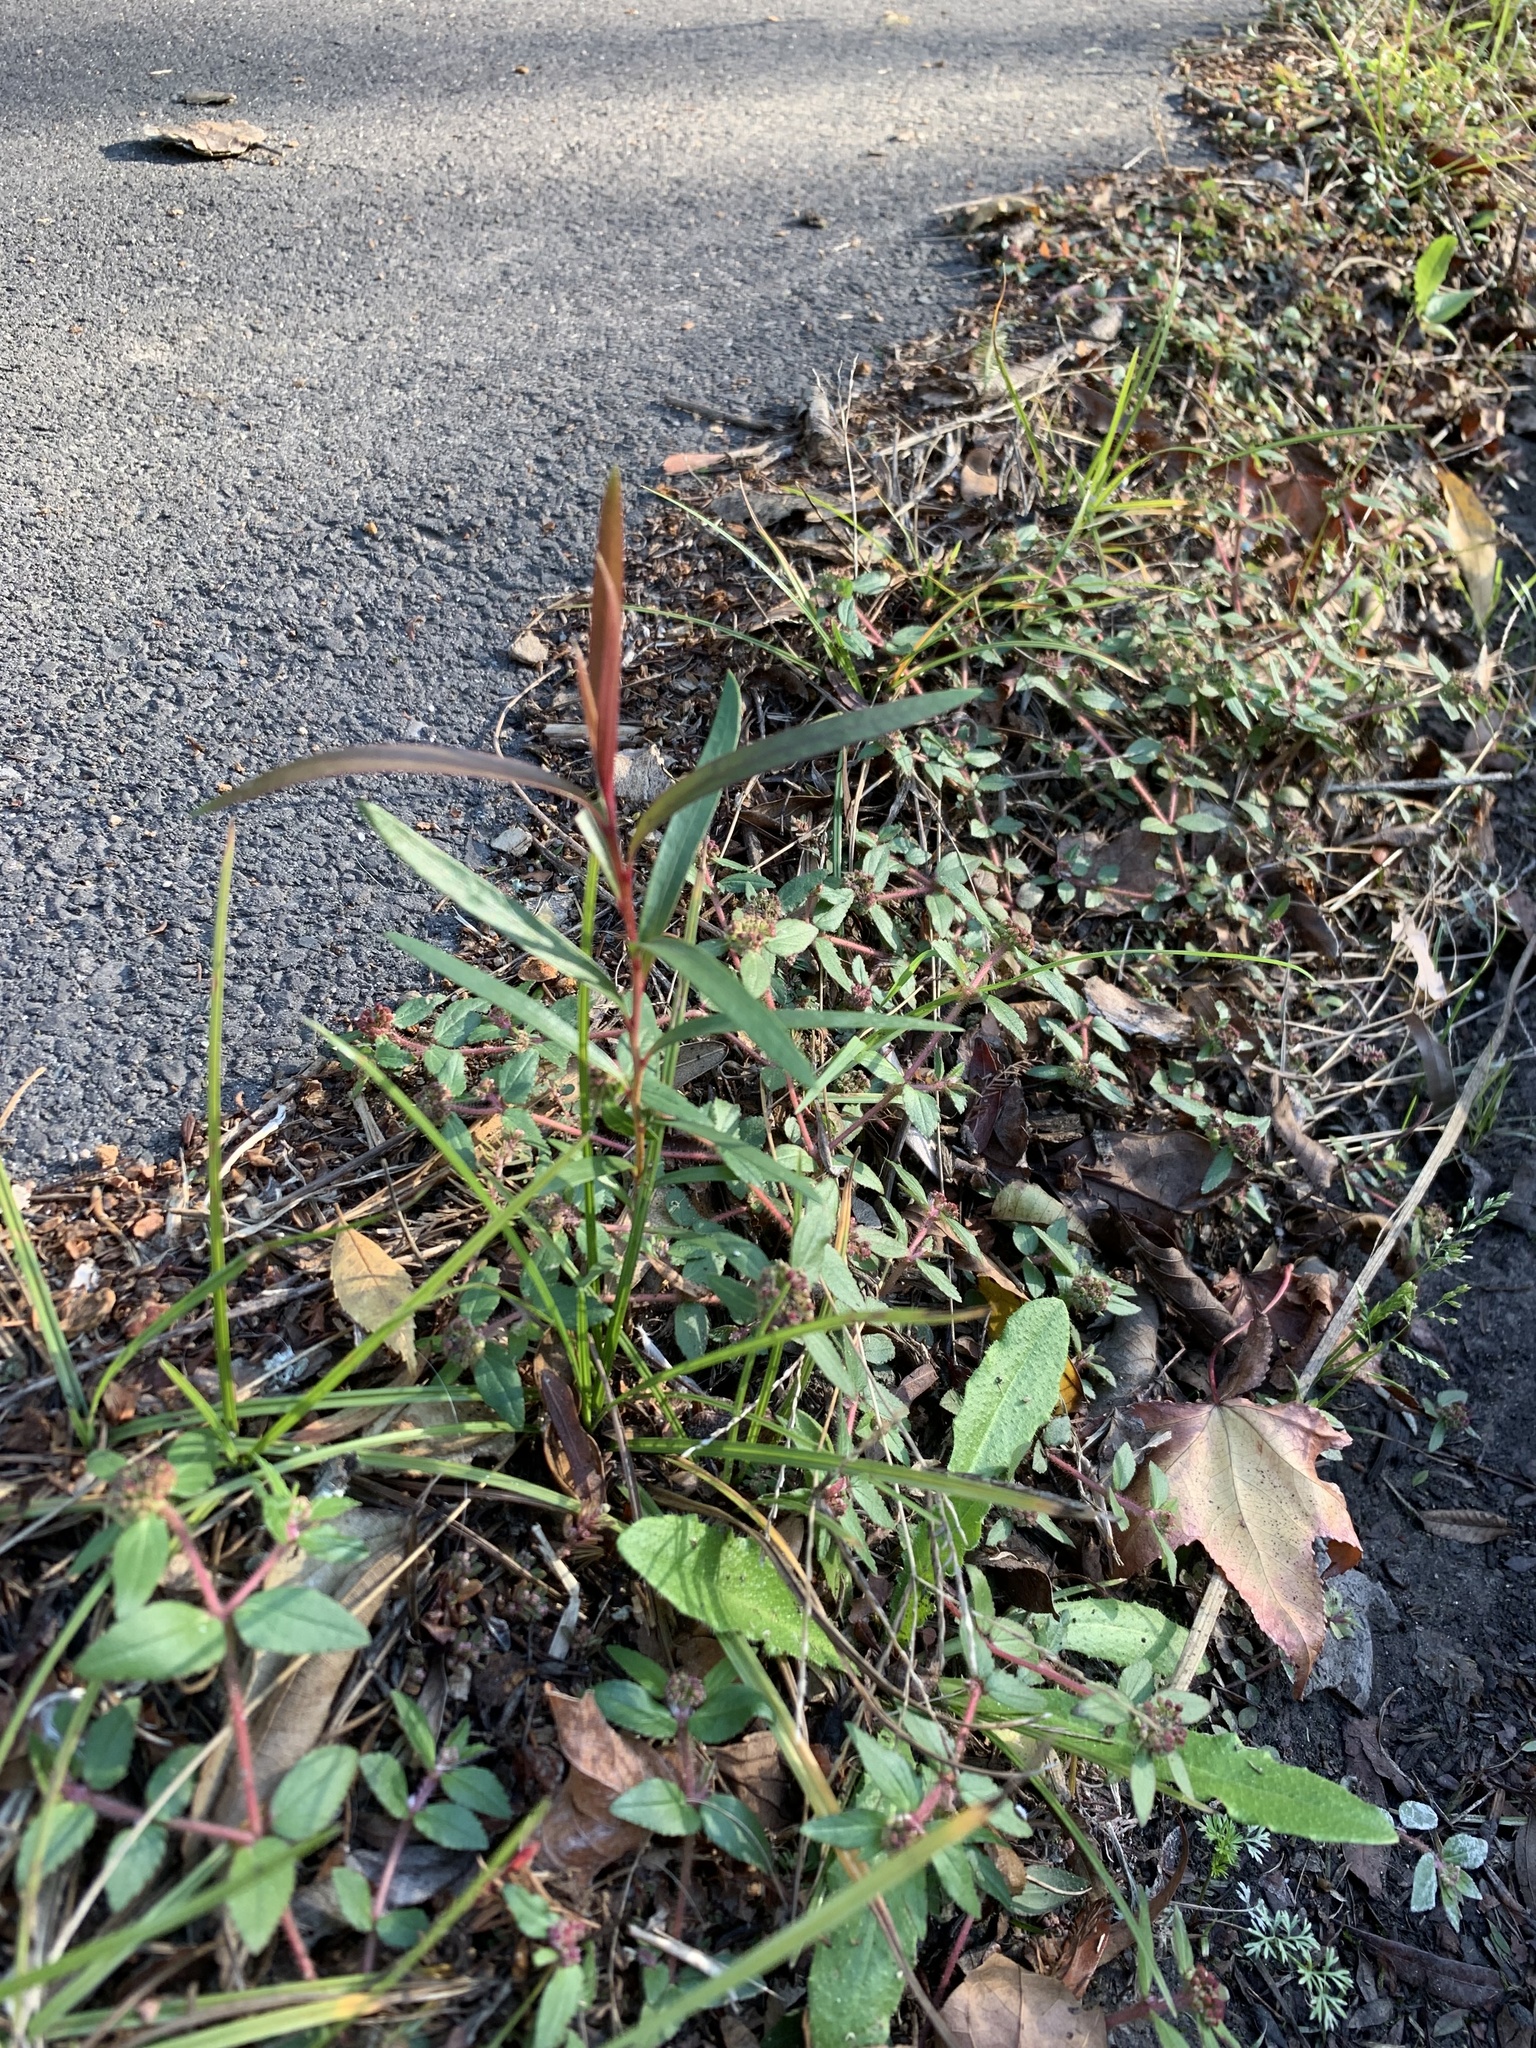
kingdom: Plantae
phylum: Tracheophyta
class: Magnoliopsida
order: Myrtales
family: Myrtaceae
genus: Callistemon
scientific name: Callistemon viminalis
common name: Drooping bottlebrush
